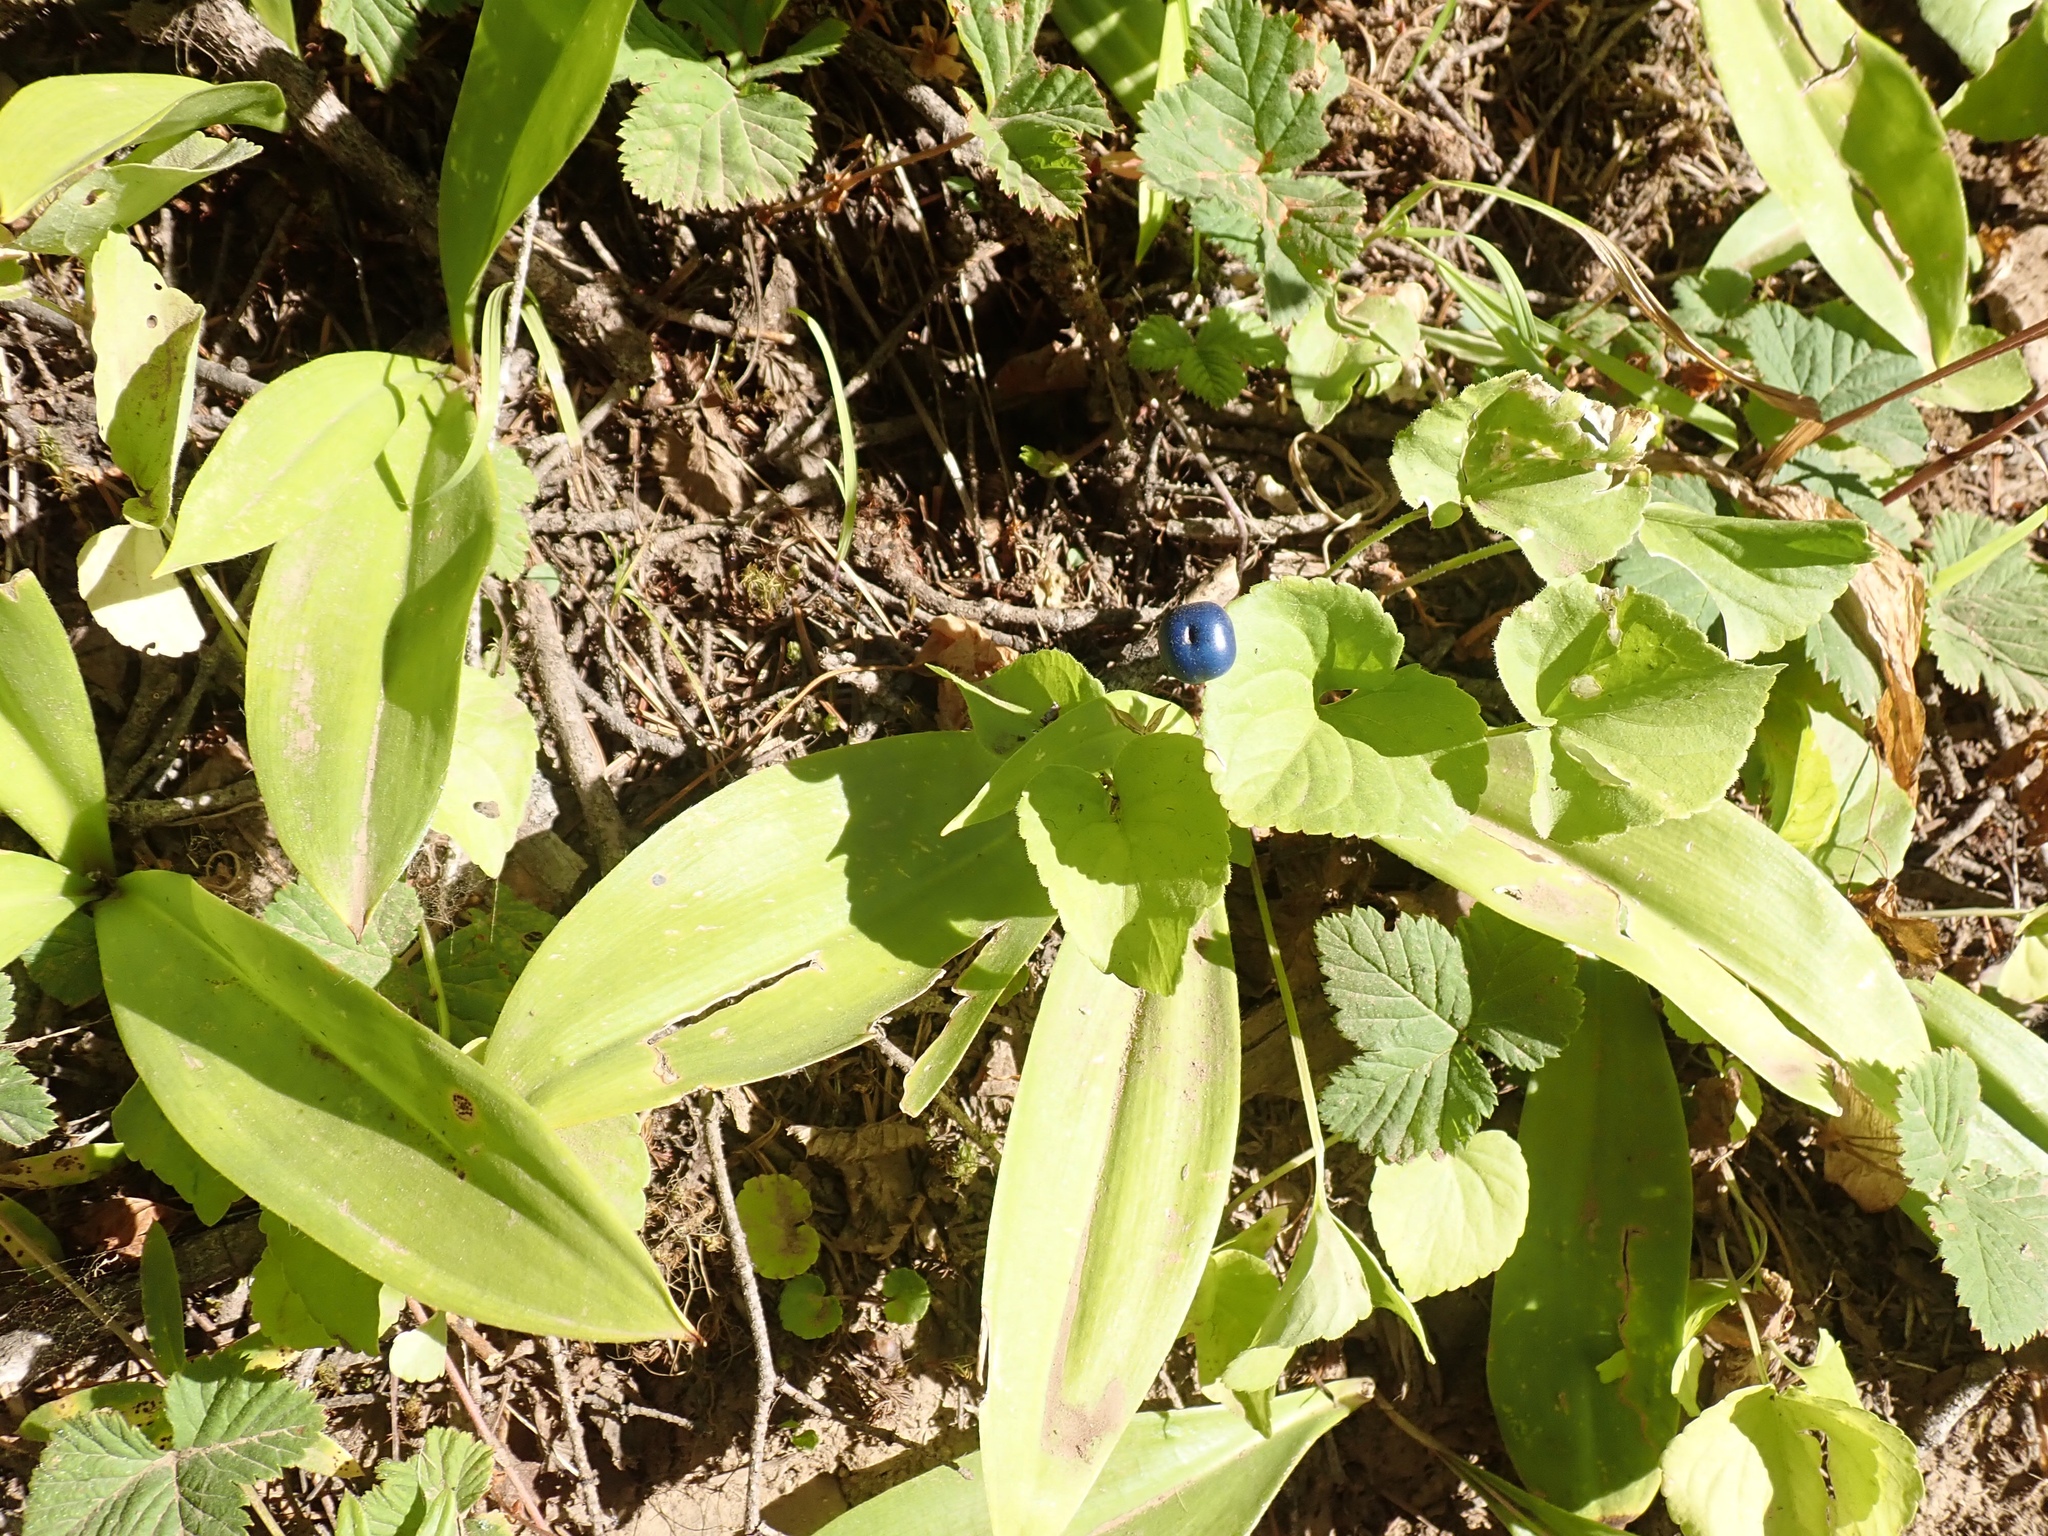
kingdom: Plantae
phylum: Tracheophyta
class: Liliopsida
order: Liliales
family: Liliaceae
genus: Clintonia
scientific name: Clintonia uniflora
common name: Queen's cup
